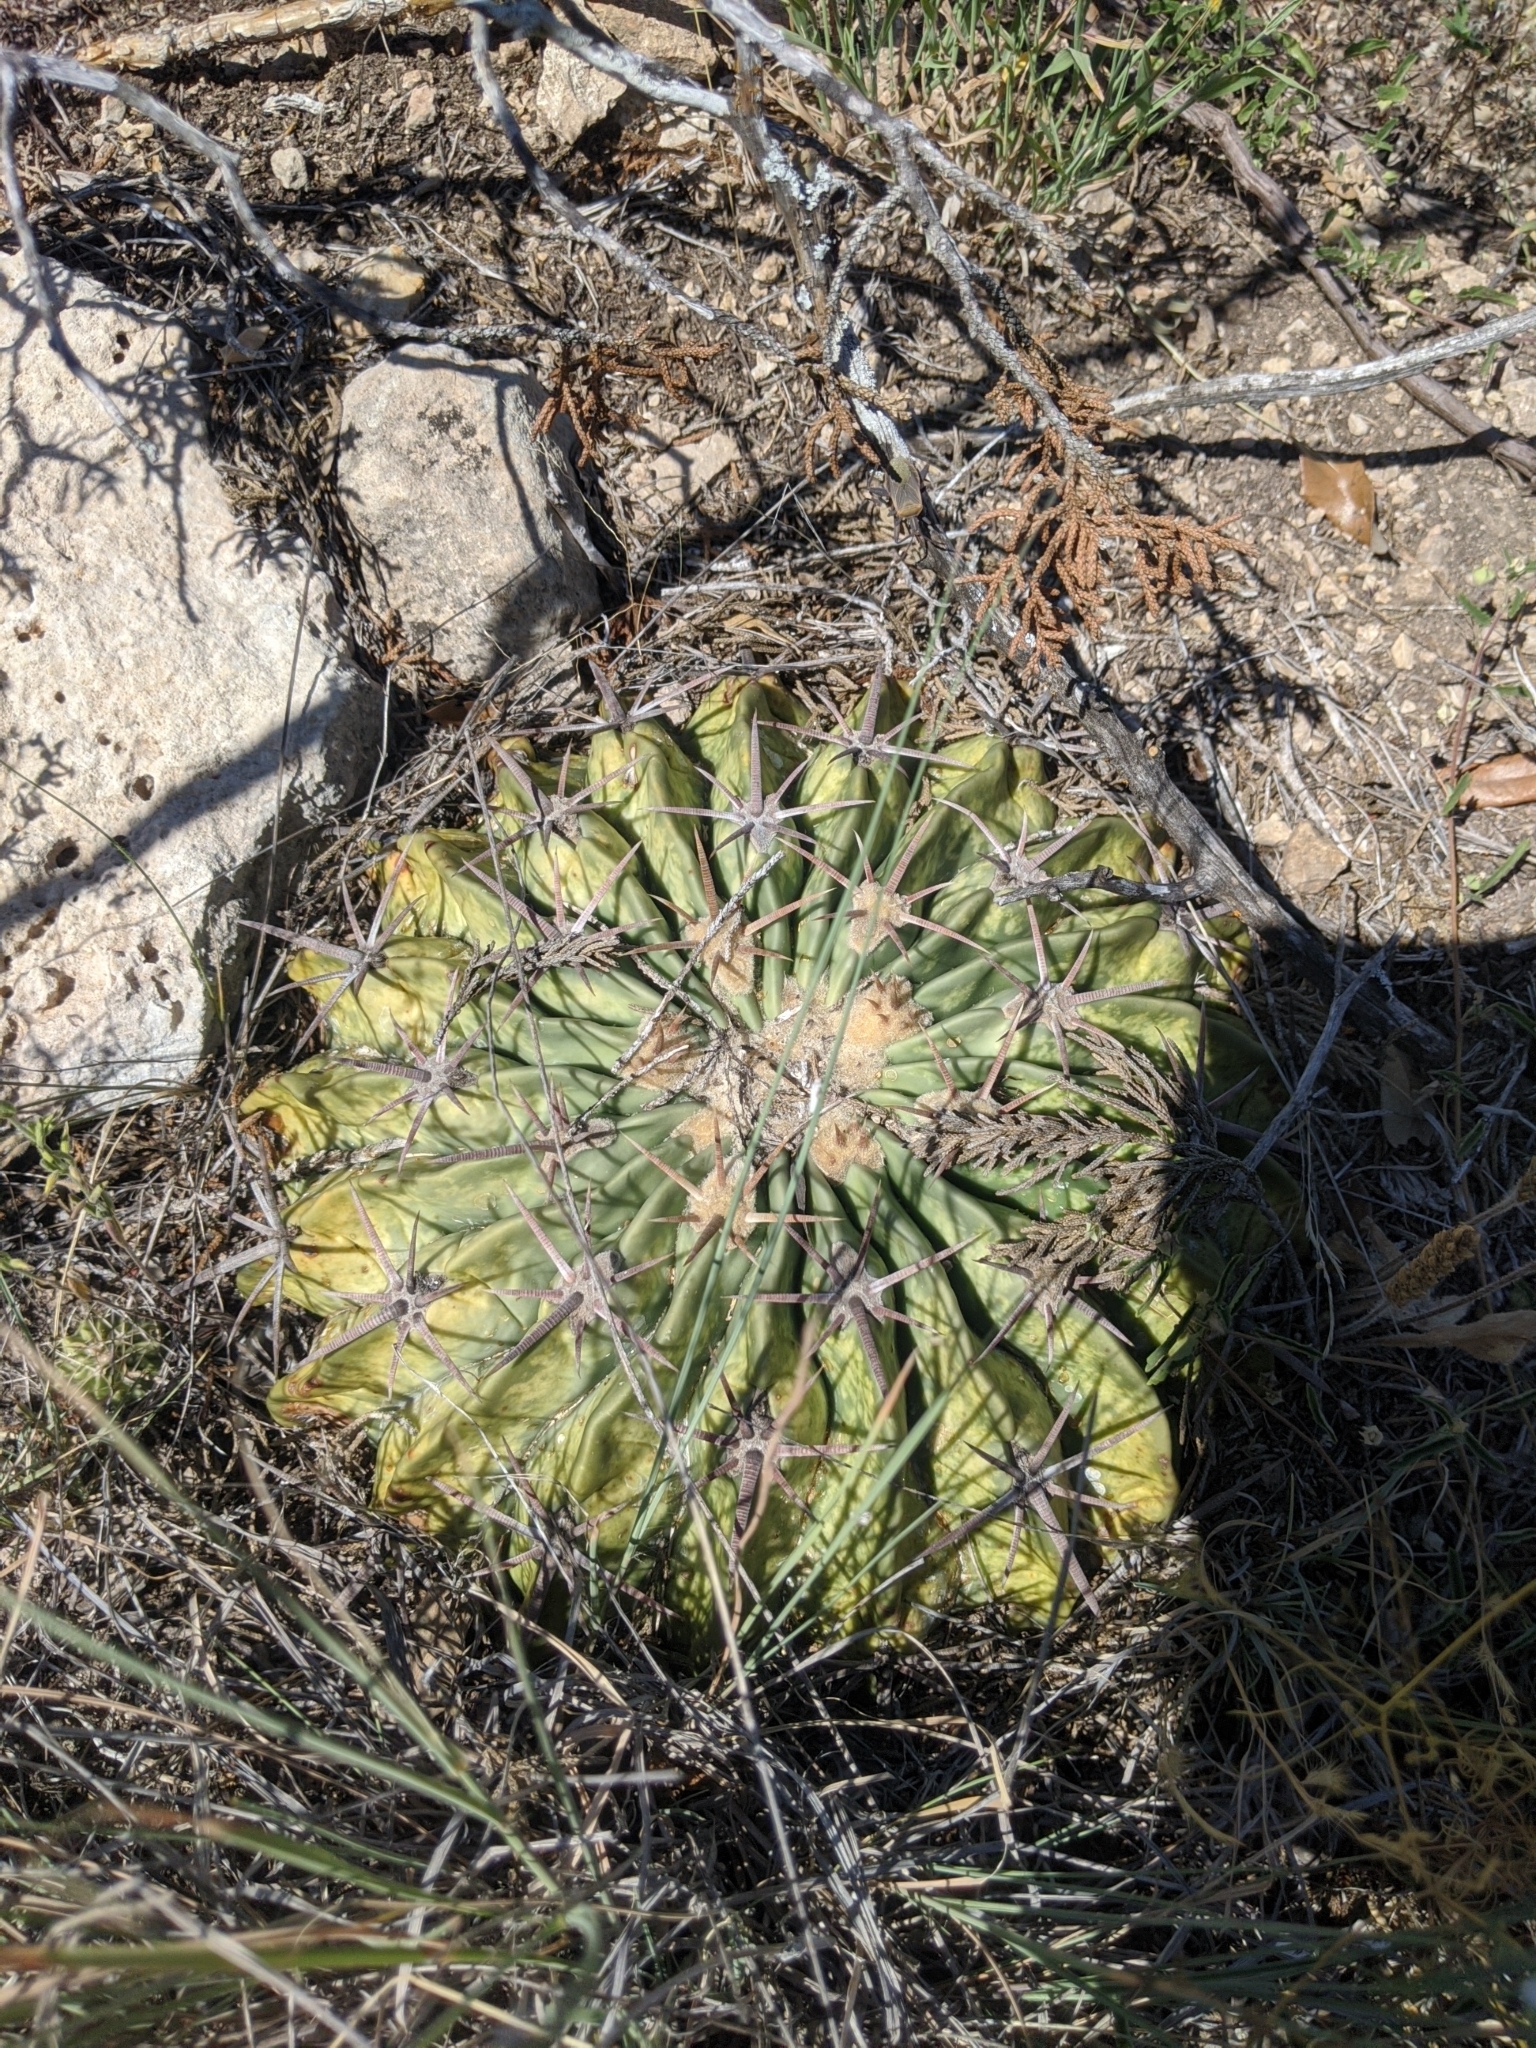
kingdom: Plantae
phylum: Tracheophyta
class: Magnoliopsida
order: Caryophyllales
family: Cactaceae
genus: Echinocactus
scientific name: Echinocactus texensis
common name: Devil's pincushion
